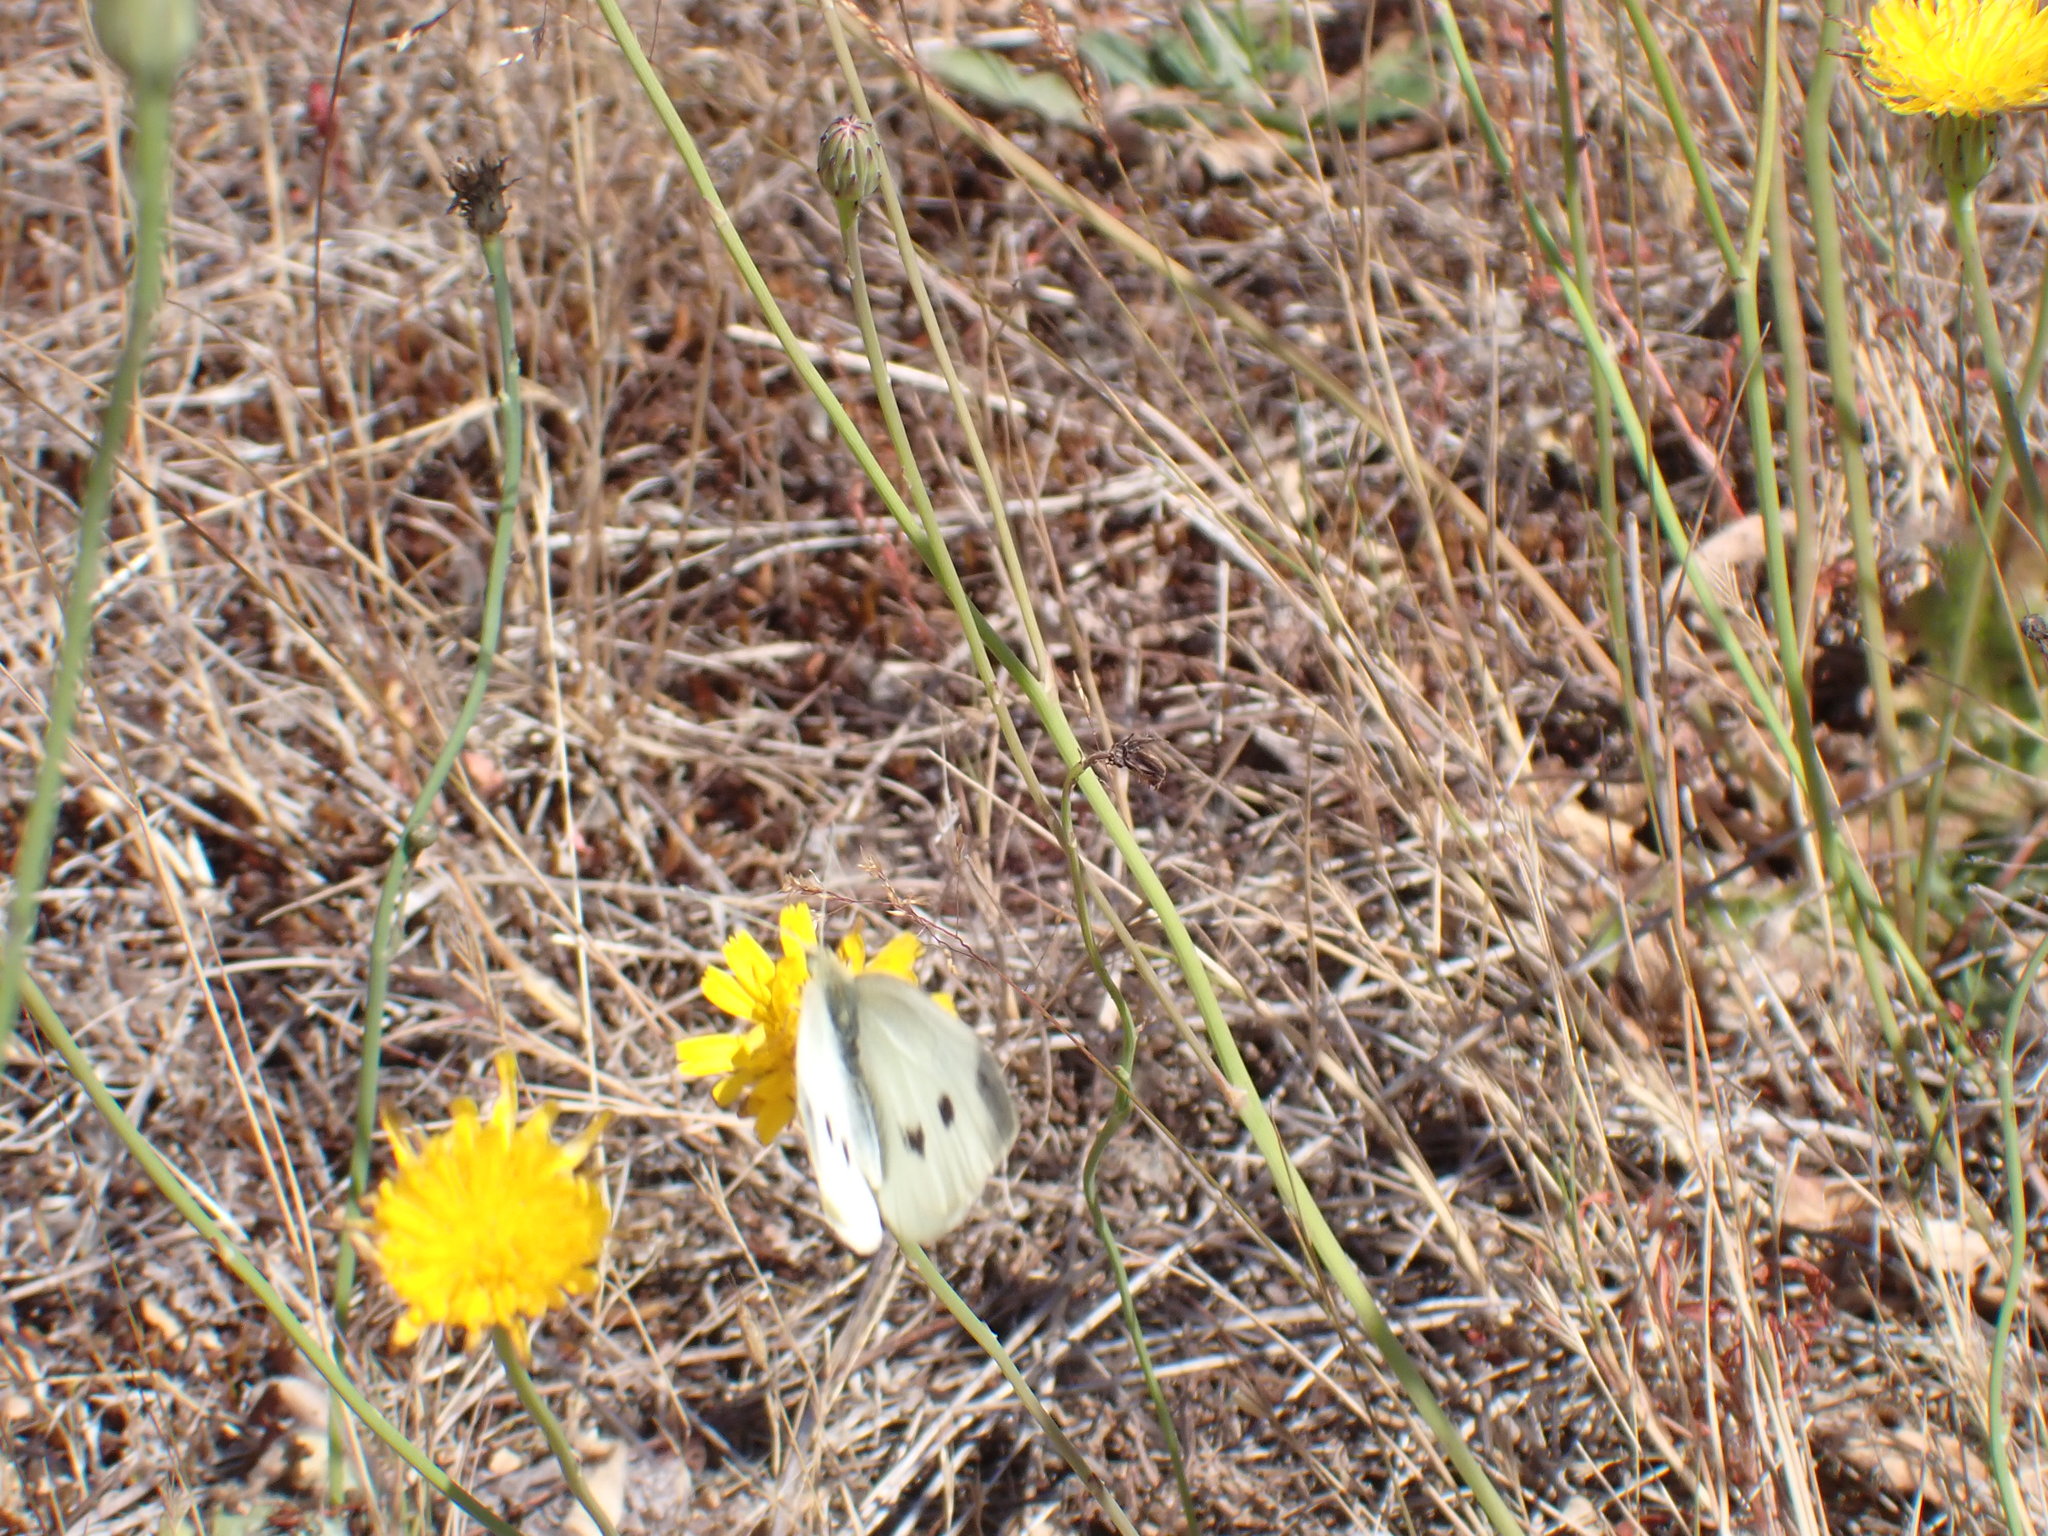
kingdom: Animalia
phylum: Arthropoda
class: Insecta
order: Lepidoptera
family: Pieridae
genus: Pieris
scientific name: Pieris rapae
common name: Small white
